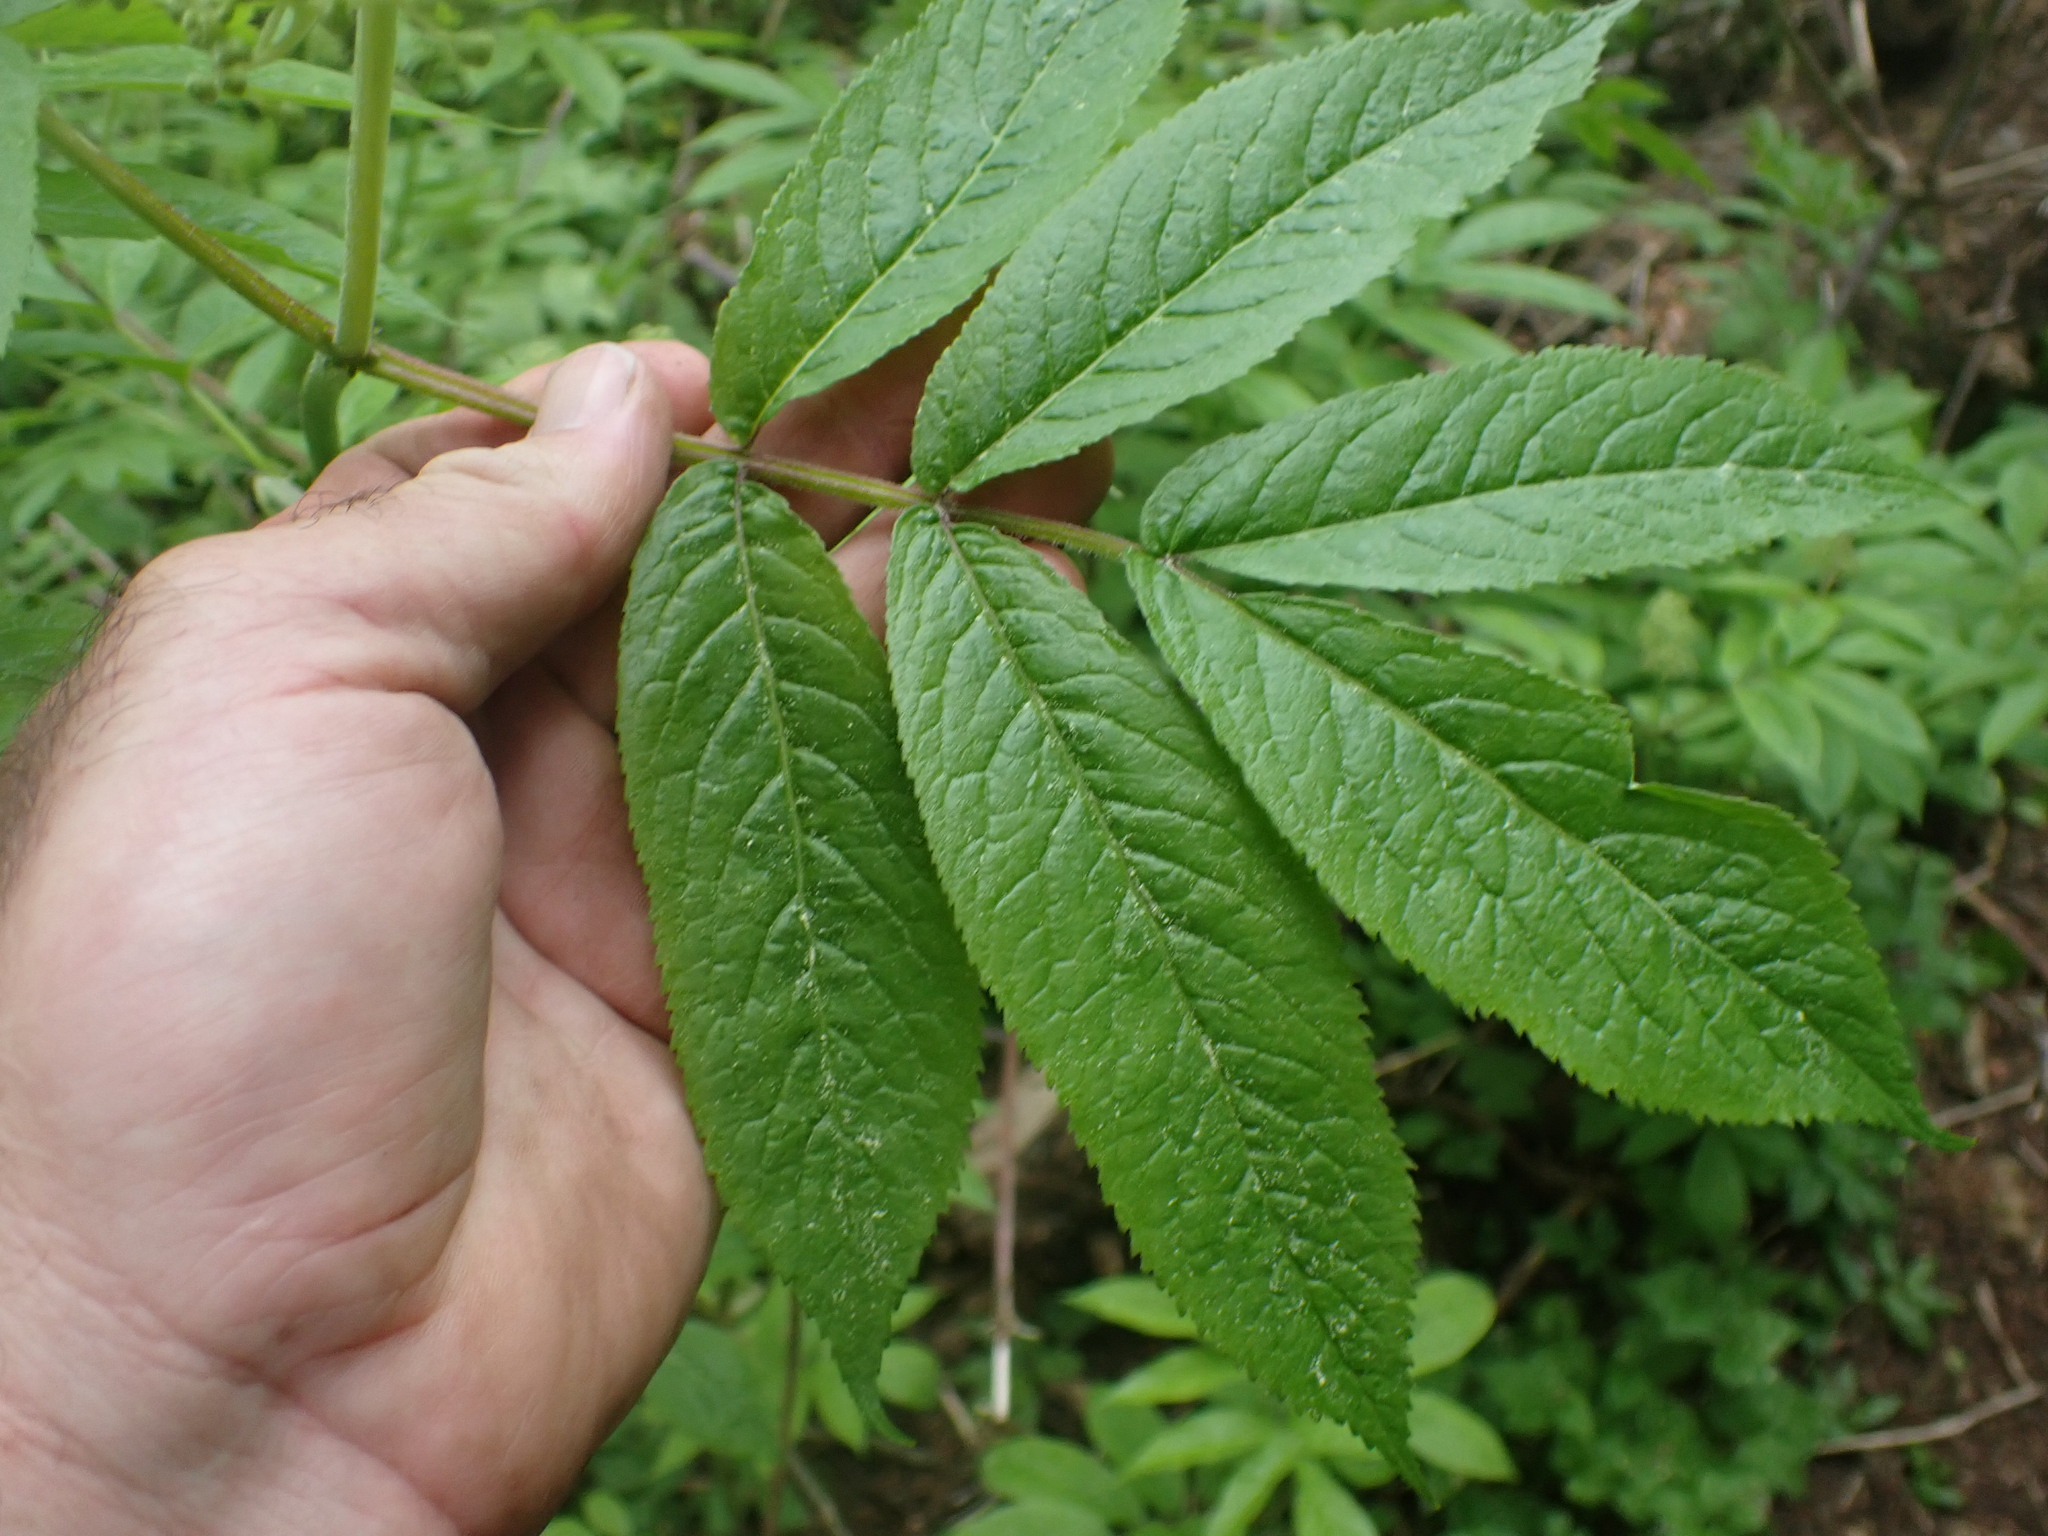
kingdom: Plantae
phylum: Tracheophyta
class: Magnoliopsida
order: Dipsacales
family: Viburnaceae
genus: Sambucus
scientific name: Sambucus racemosa
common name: Red-berried elder
